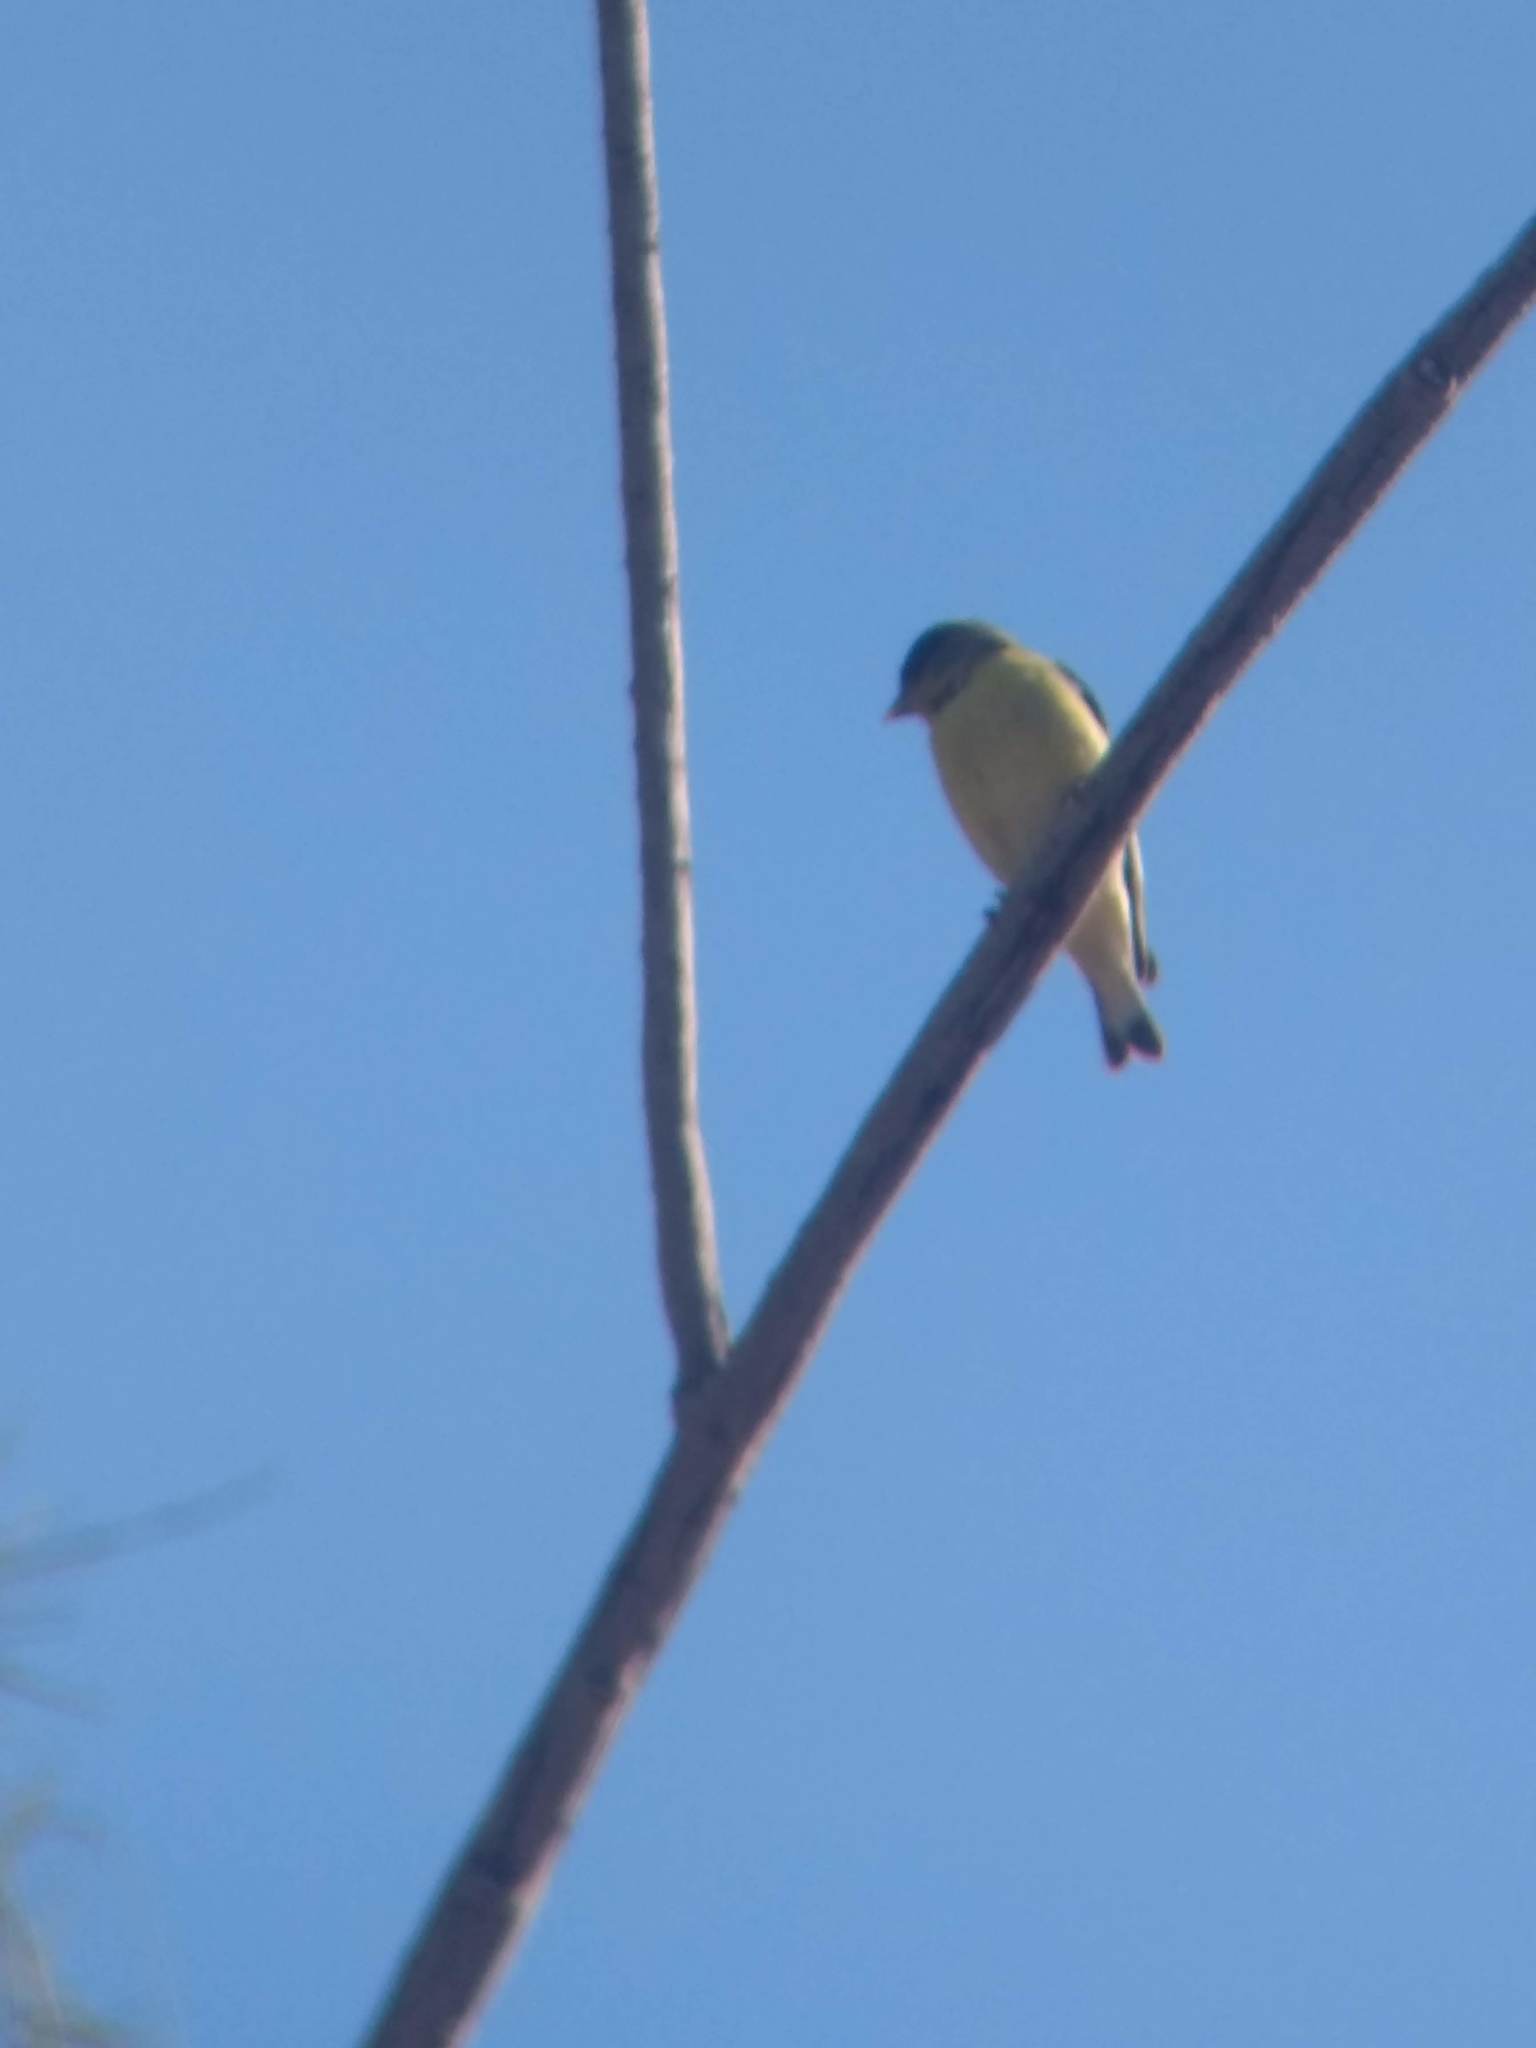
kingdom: Animalia
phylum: Chordata
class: Aves
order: Passeriformes
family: Fringillidae
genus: Spinus
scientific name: Spinus psaltria
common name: Lesser goldfinch
